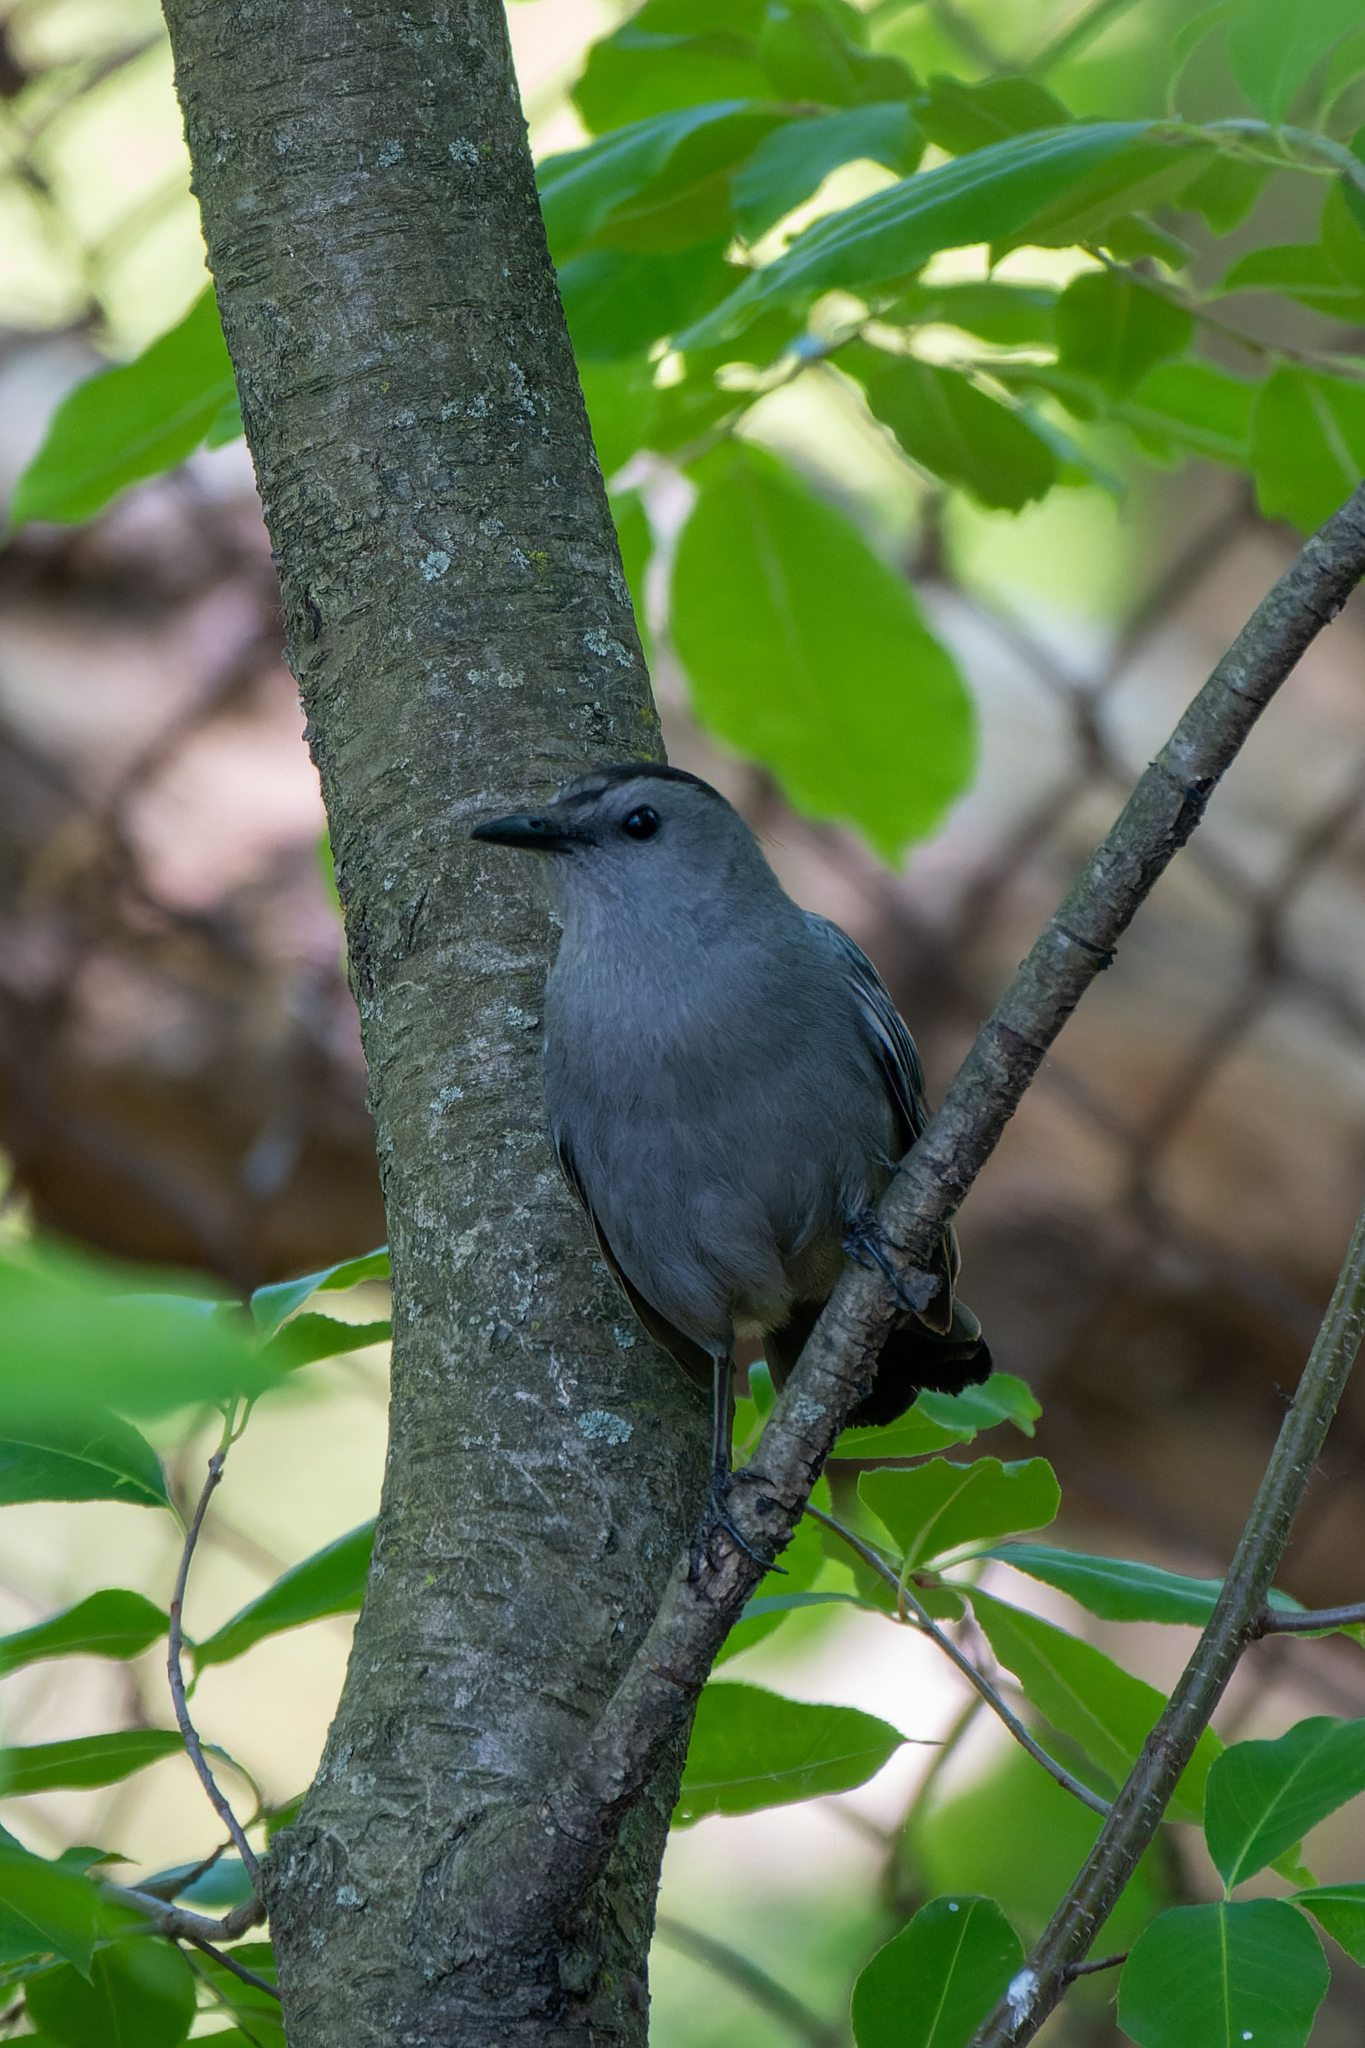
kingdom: Animalia
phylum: Chordata
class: Aves
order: Passeriformes
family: Mimidae
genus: Dumetella
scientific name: Dumetella carolinensis
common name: Gray catbird
